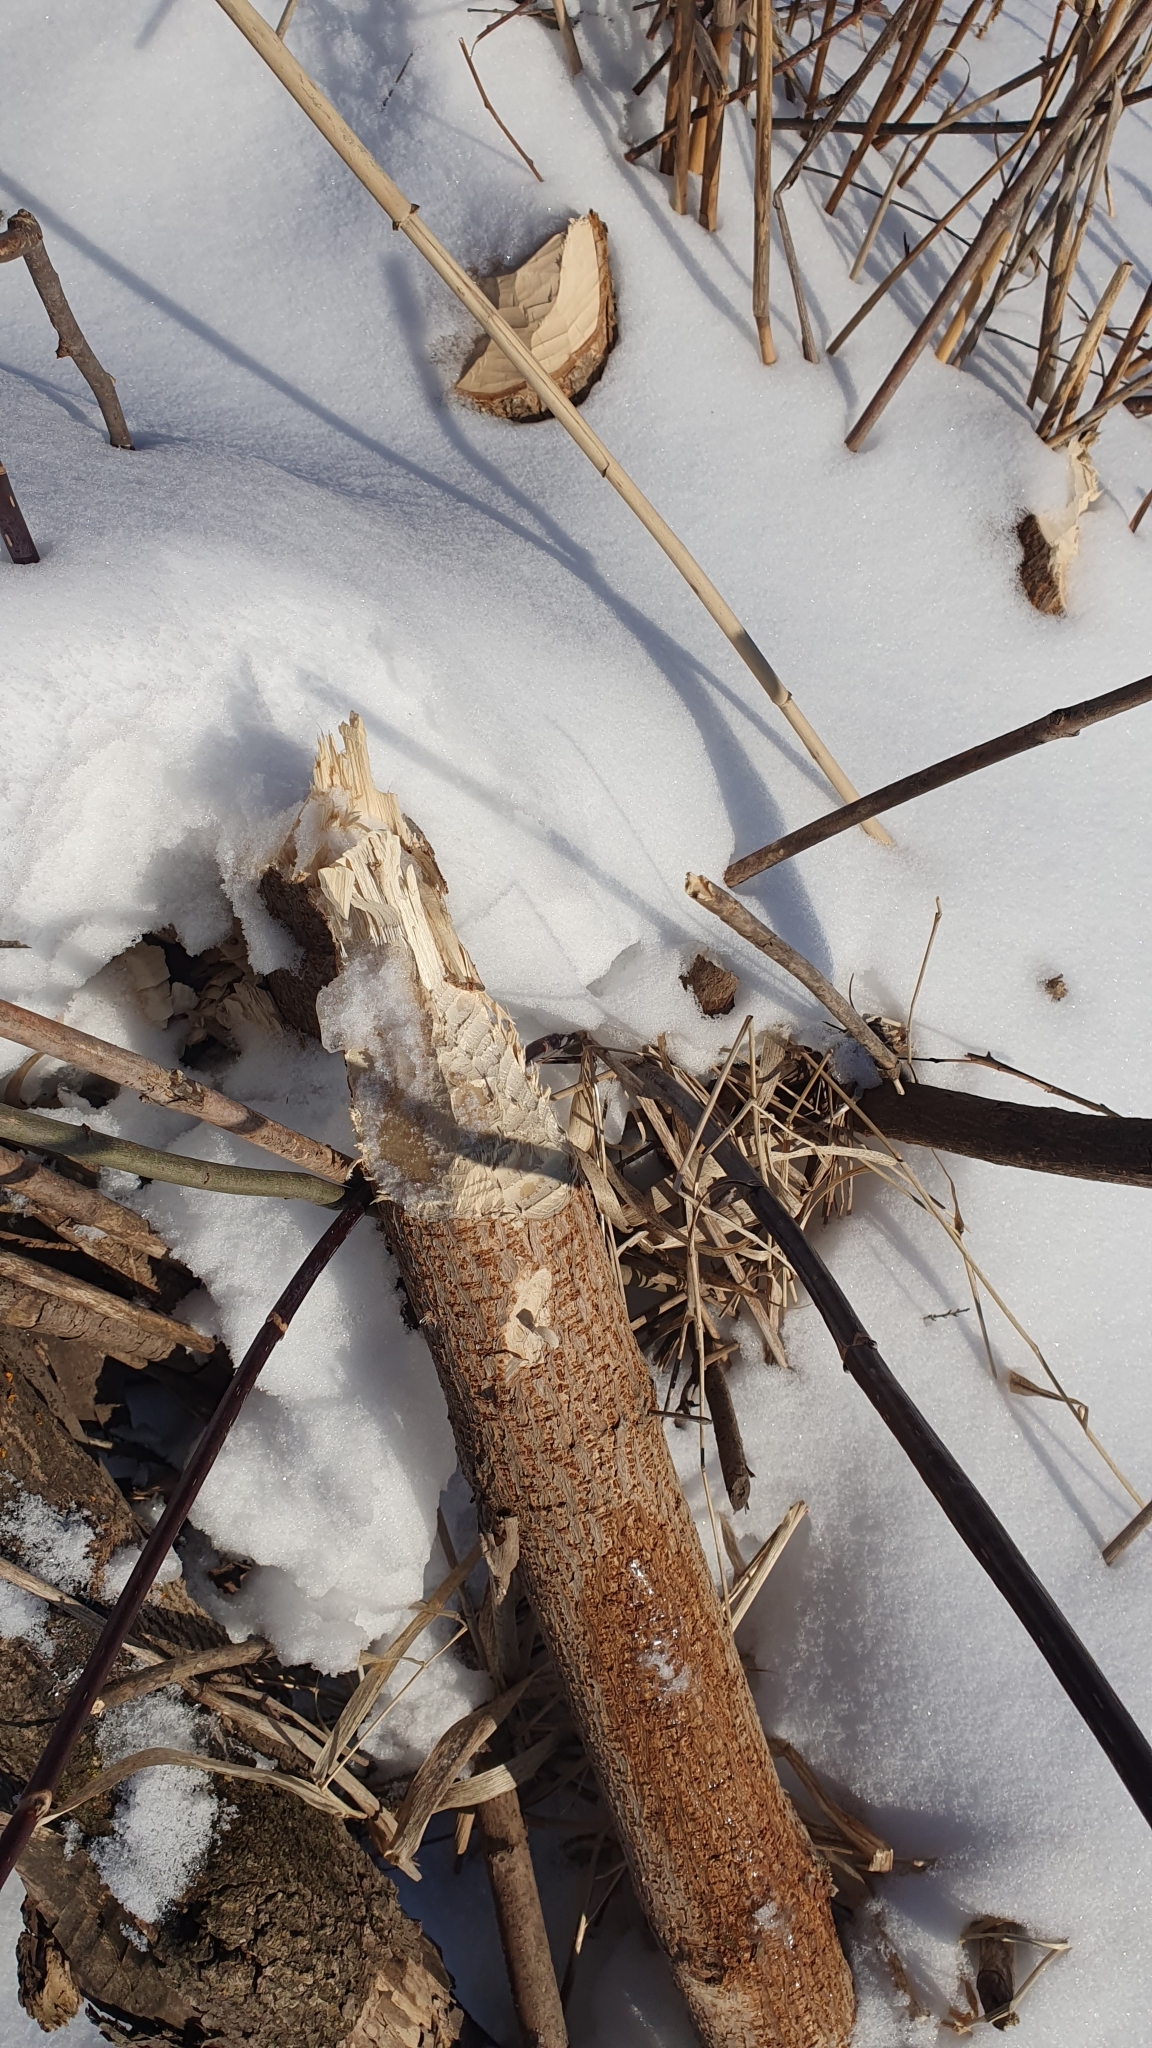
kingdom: Animalia
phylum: Chordata
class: Mammalia
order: Rodentia
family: Castoridae
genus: Castor
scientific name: Castor fiber
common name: Eurasian beaver
